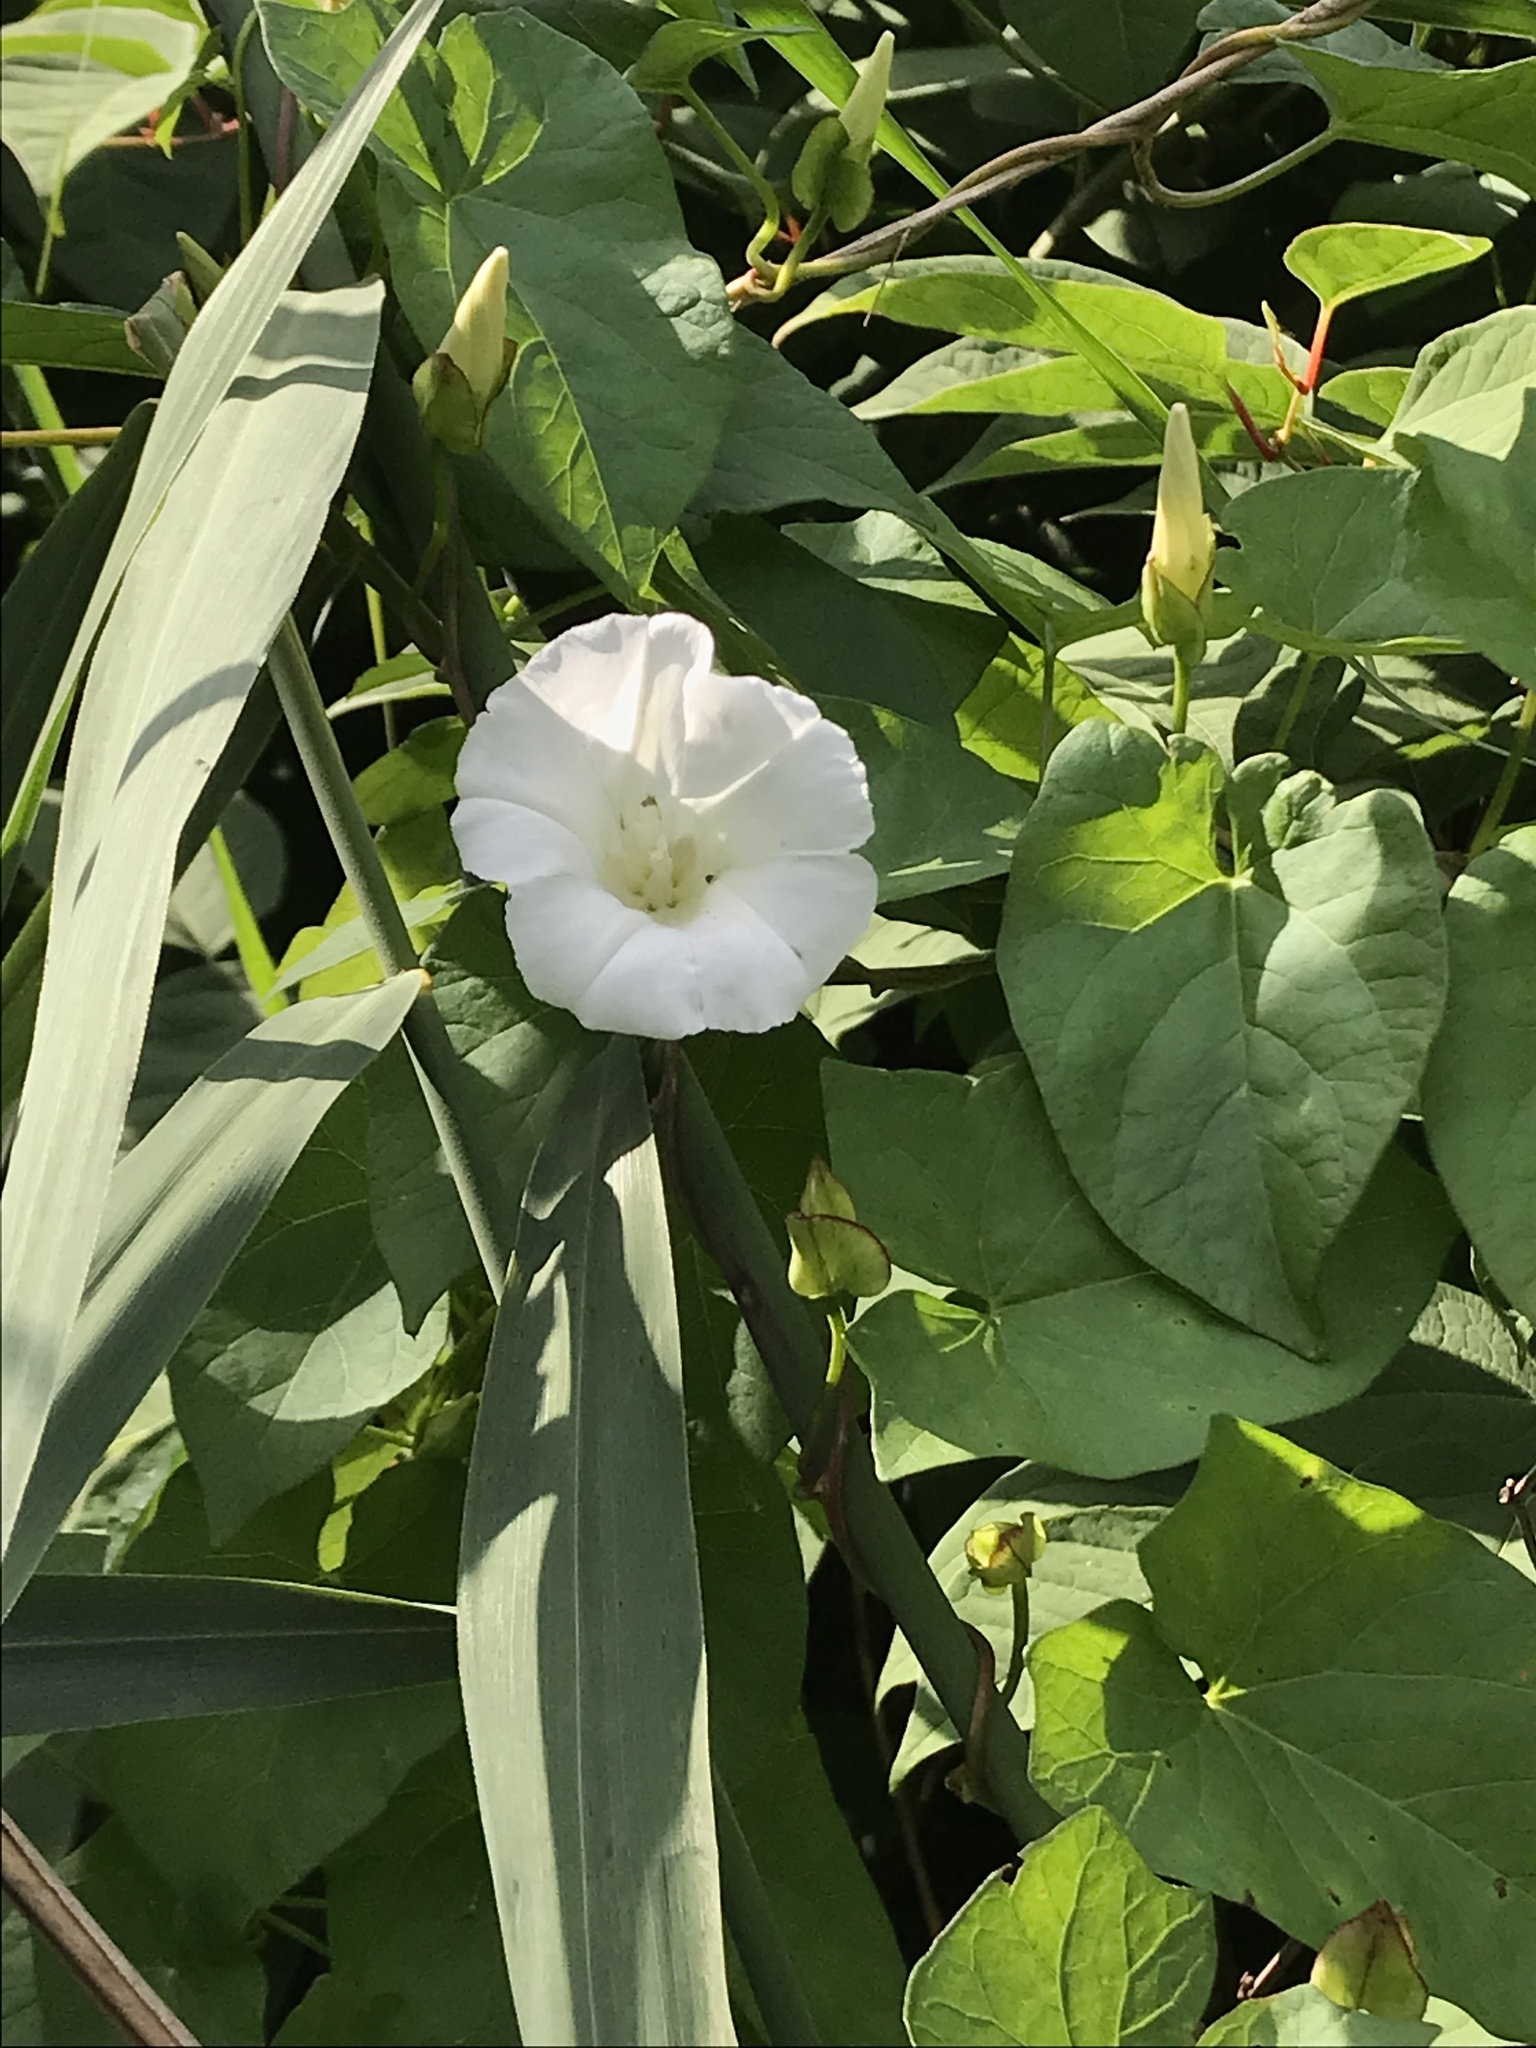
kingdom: Plantae
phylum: Tracheophyta
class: Magnoliopsida
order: Solanales
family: Convolvulaceae
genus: Calystegia
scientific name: Calystegia sepium
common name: Hedge bindweed
